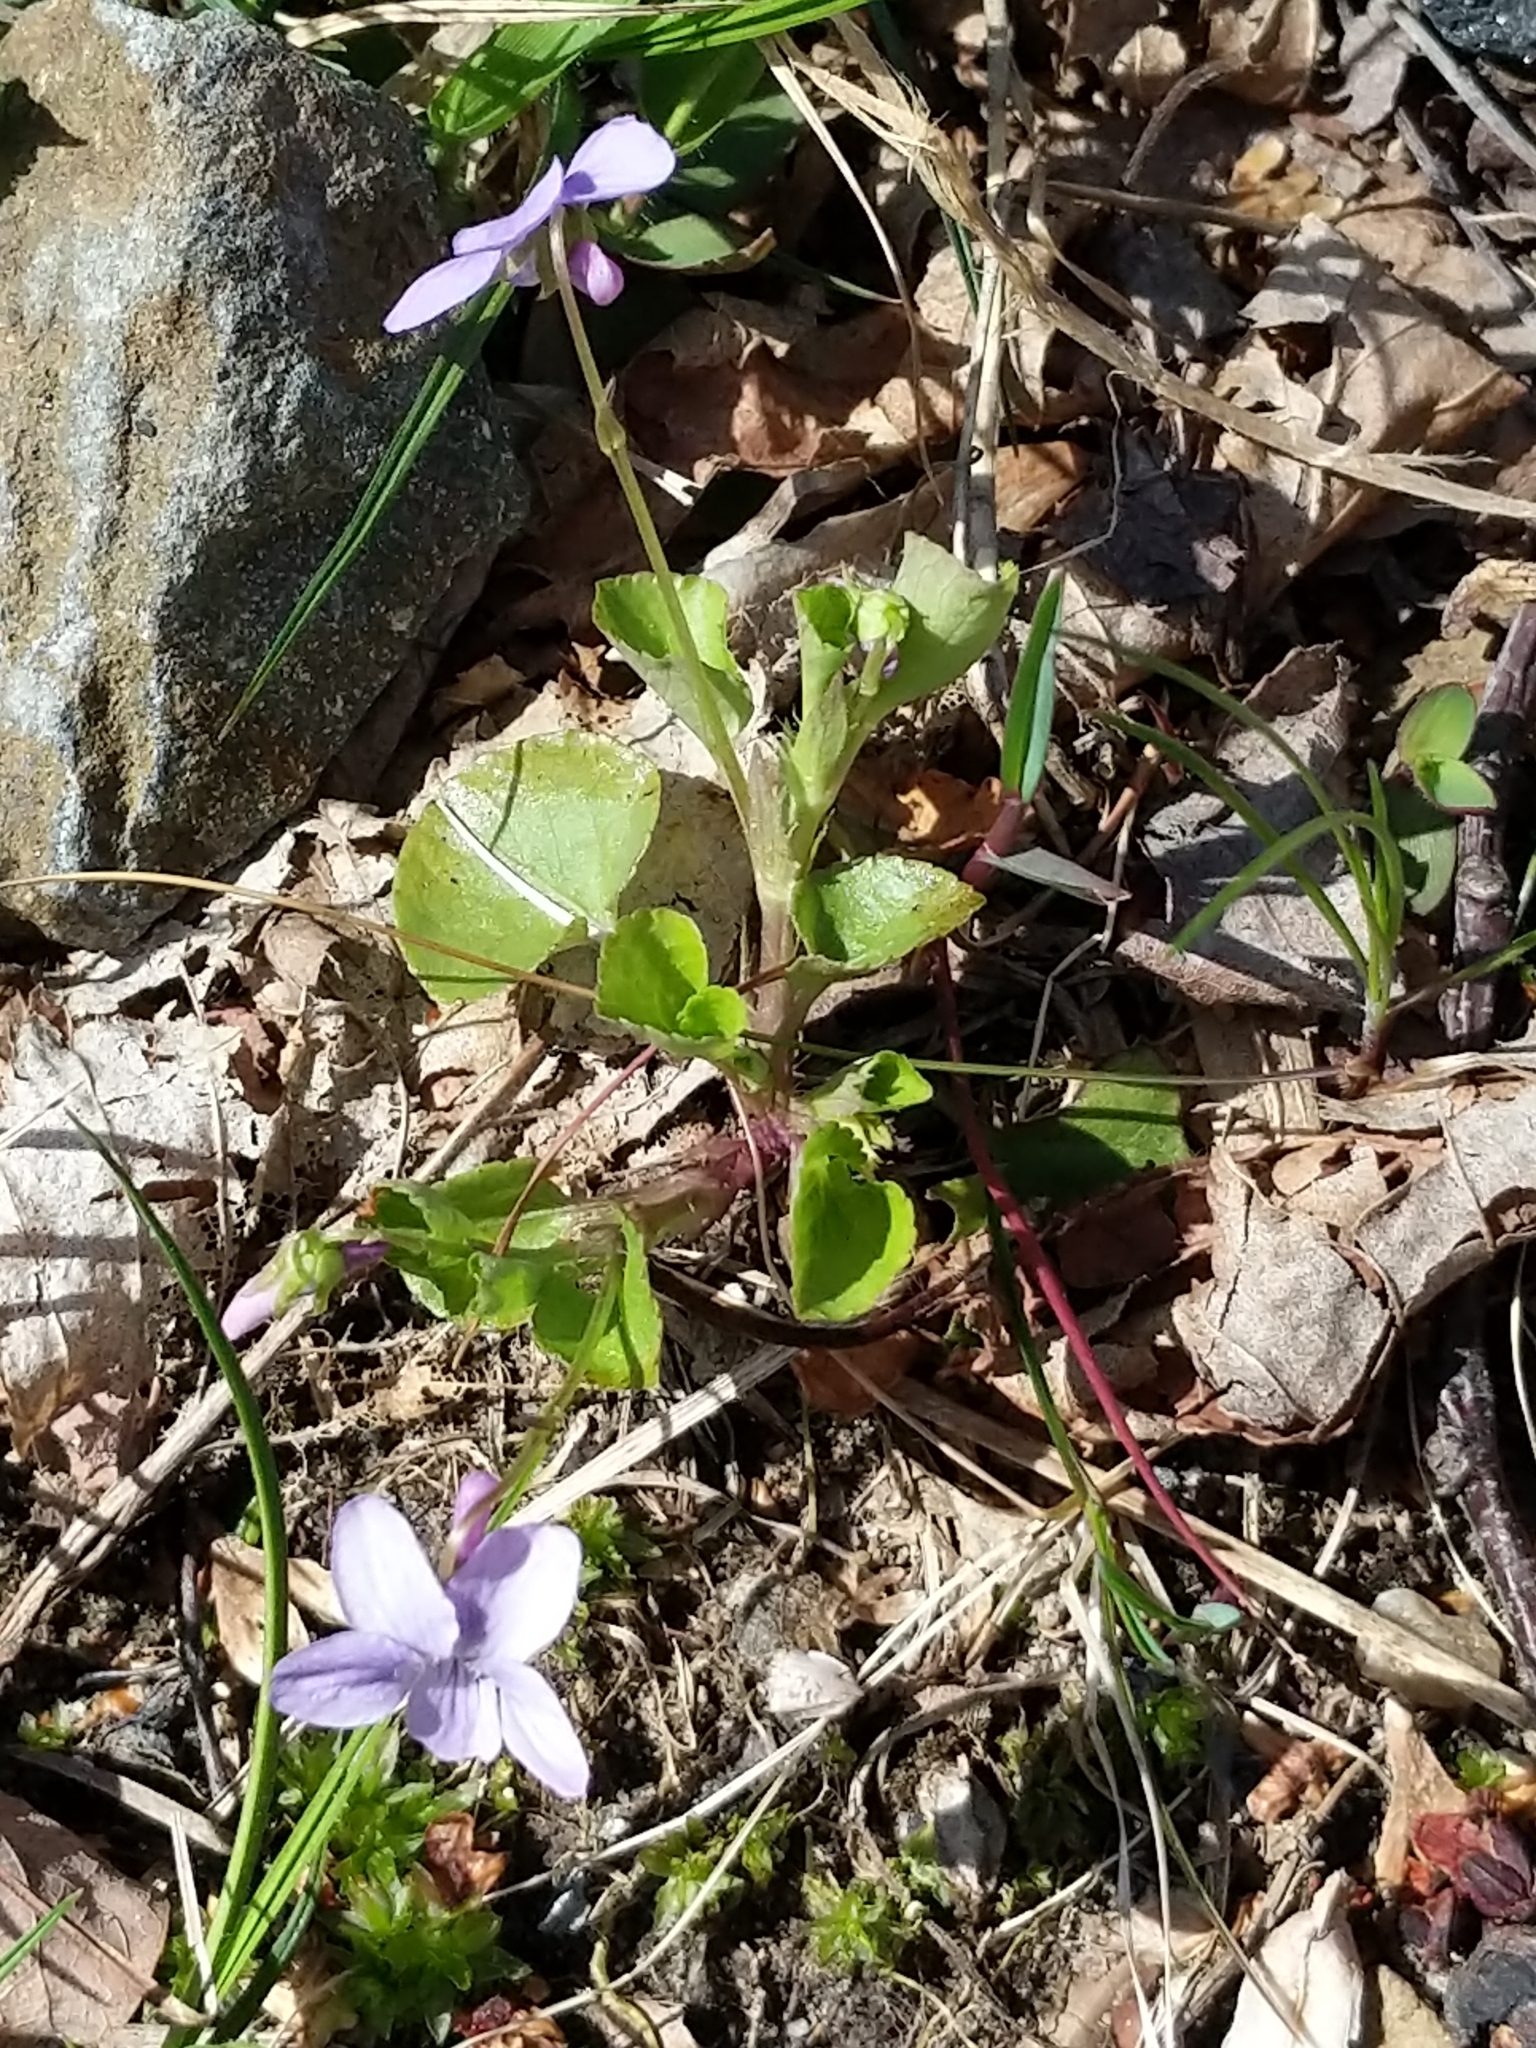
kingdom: Plantae
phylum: Tracheophyta
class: Magnoliopsida
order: Malpighiales
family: Violaceae
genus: Viola
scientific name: Viola labradorica
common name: Labrador violet
